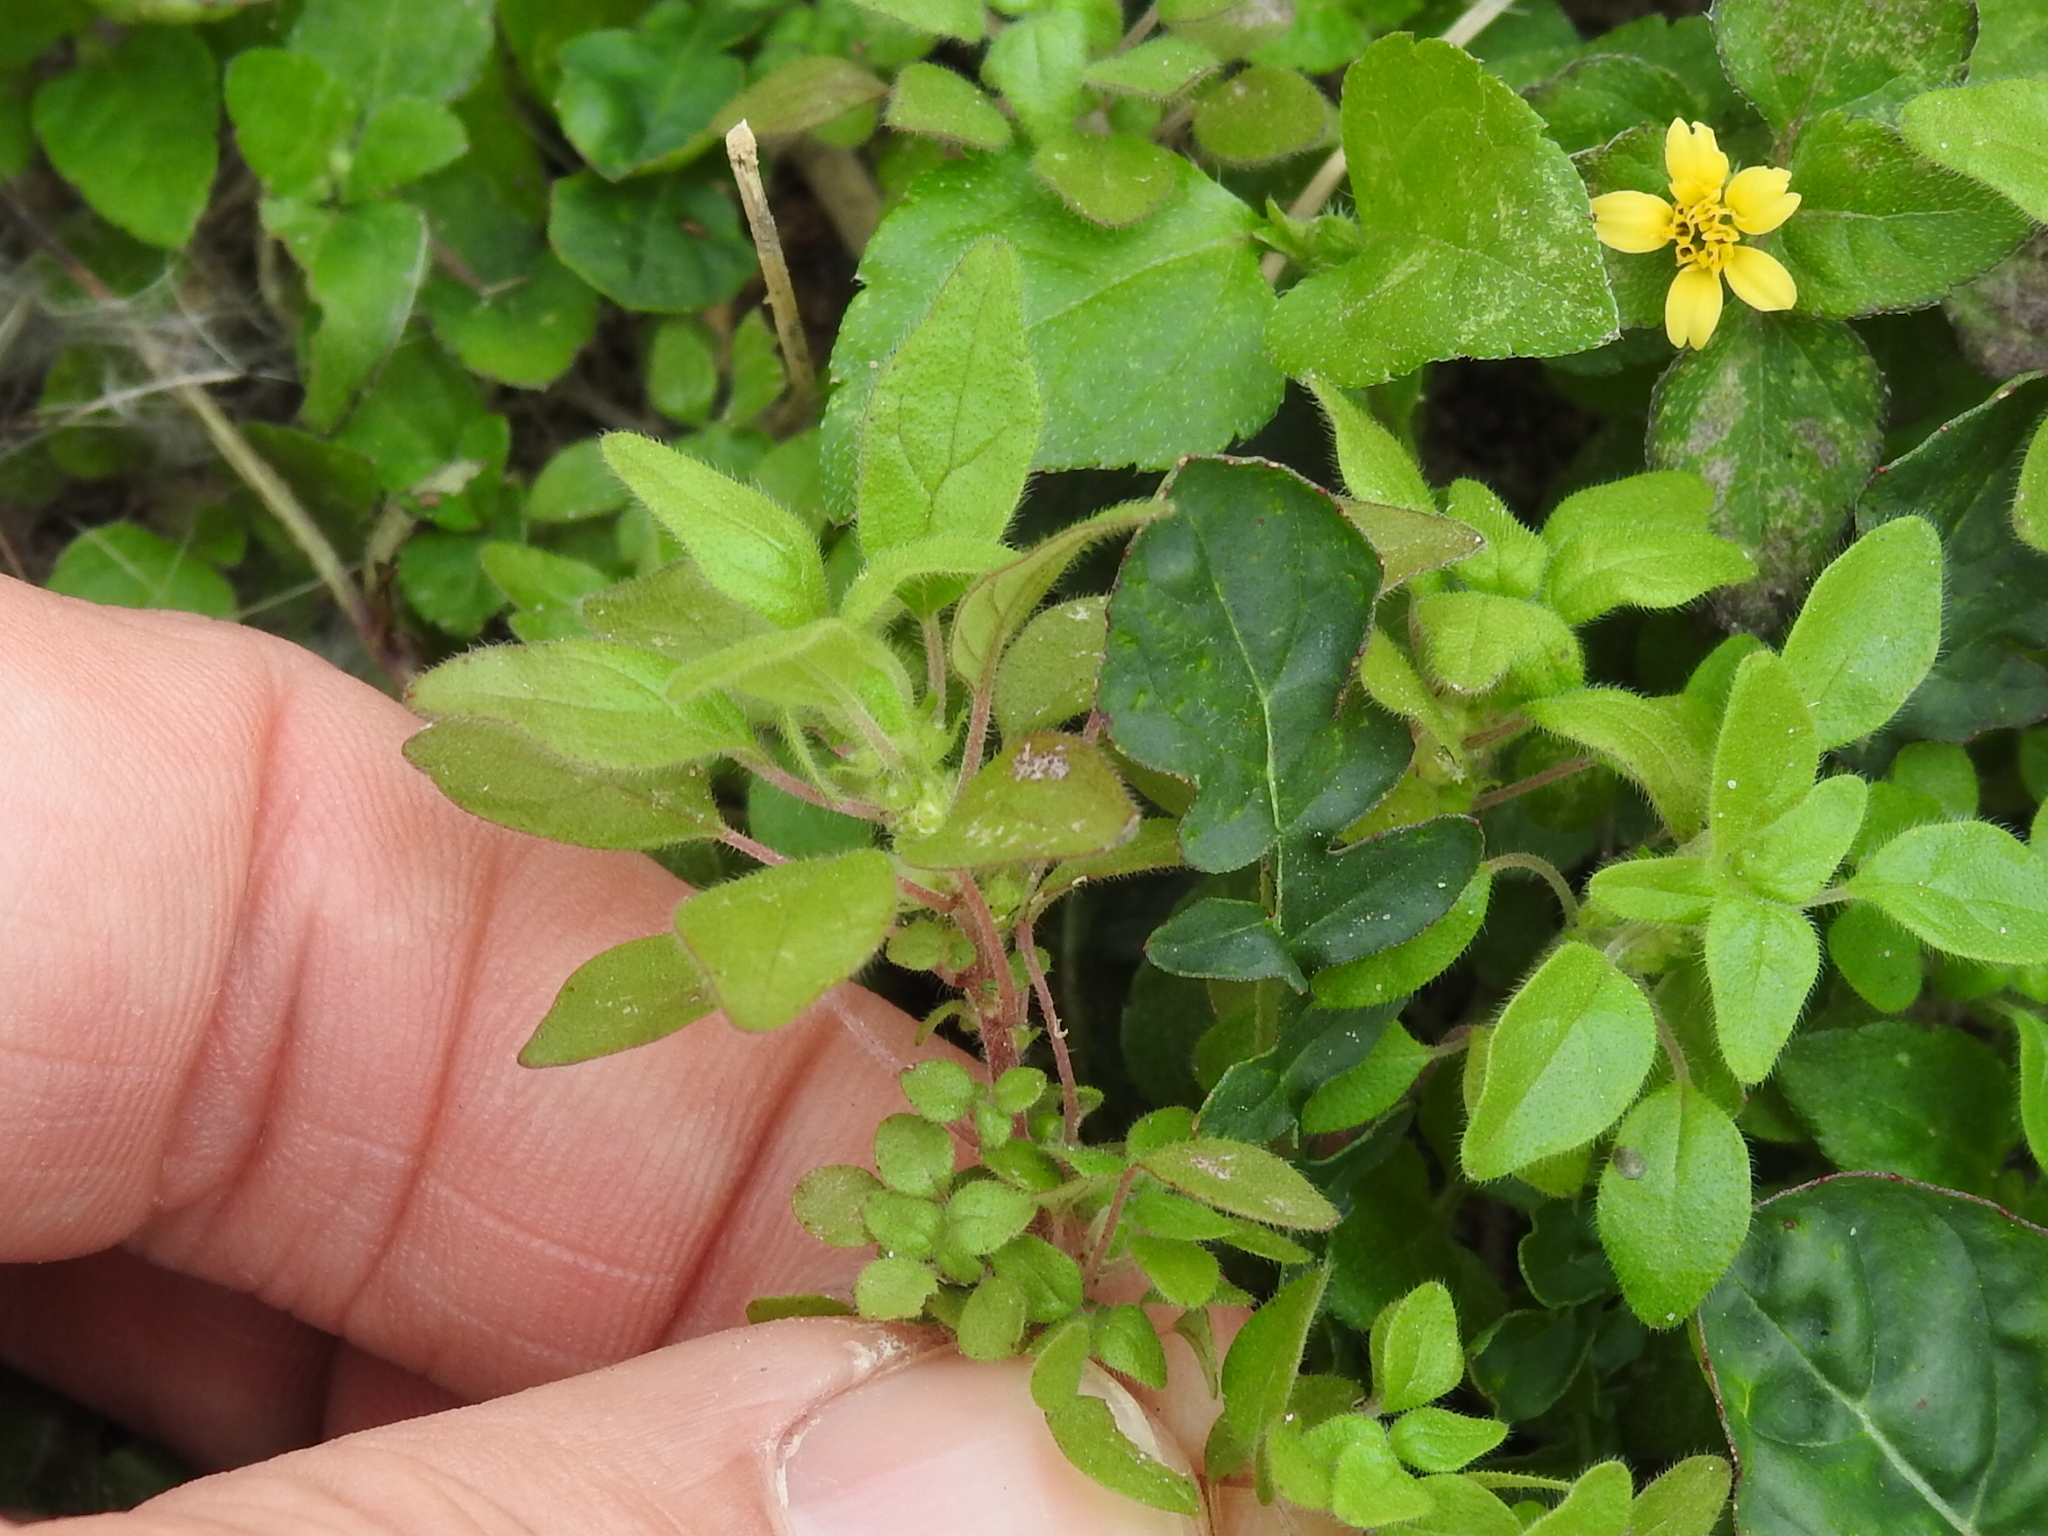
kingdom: Plantae
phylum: Tracheophyta
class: Magnoliopsida
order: Rosales
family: Urticaceae
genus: Parietaria
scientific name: Parietaria pensylvanica
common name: Pennsylvania pellitory
